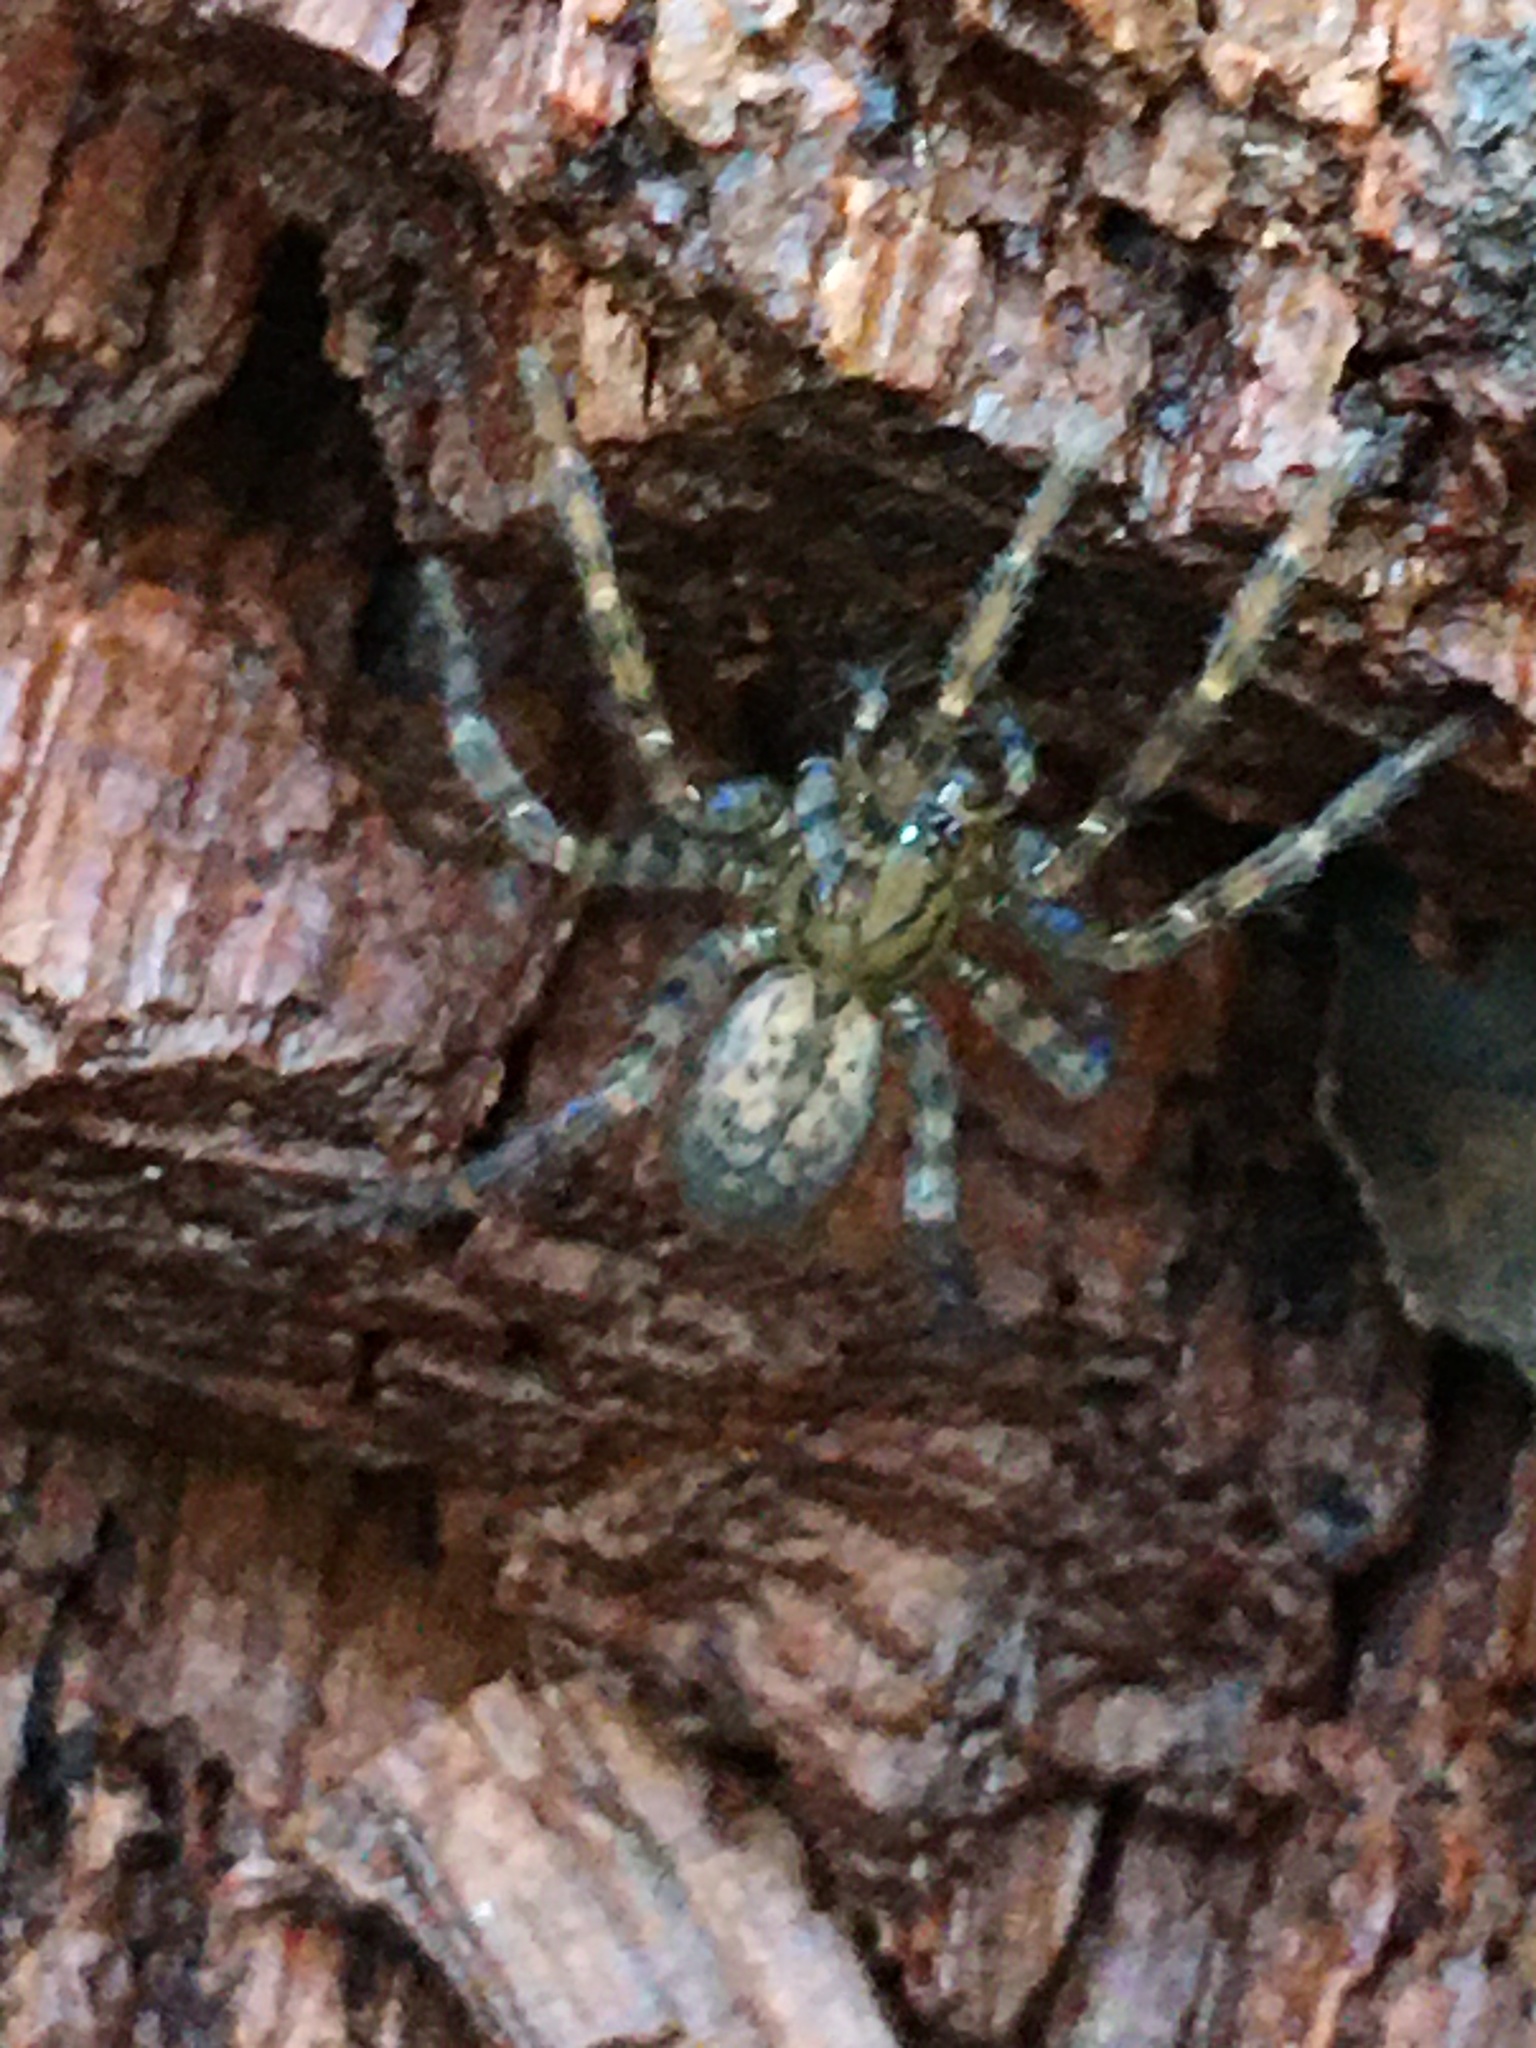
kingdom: Animalia
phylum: Arthropoda
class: Arachnida
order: Araneae
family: Agelenidae
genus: Coras
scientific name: Coras
